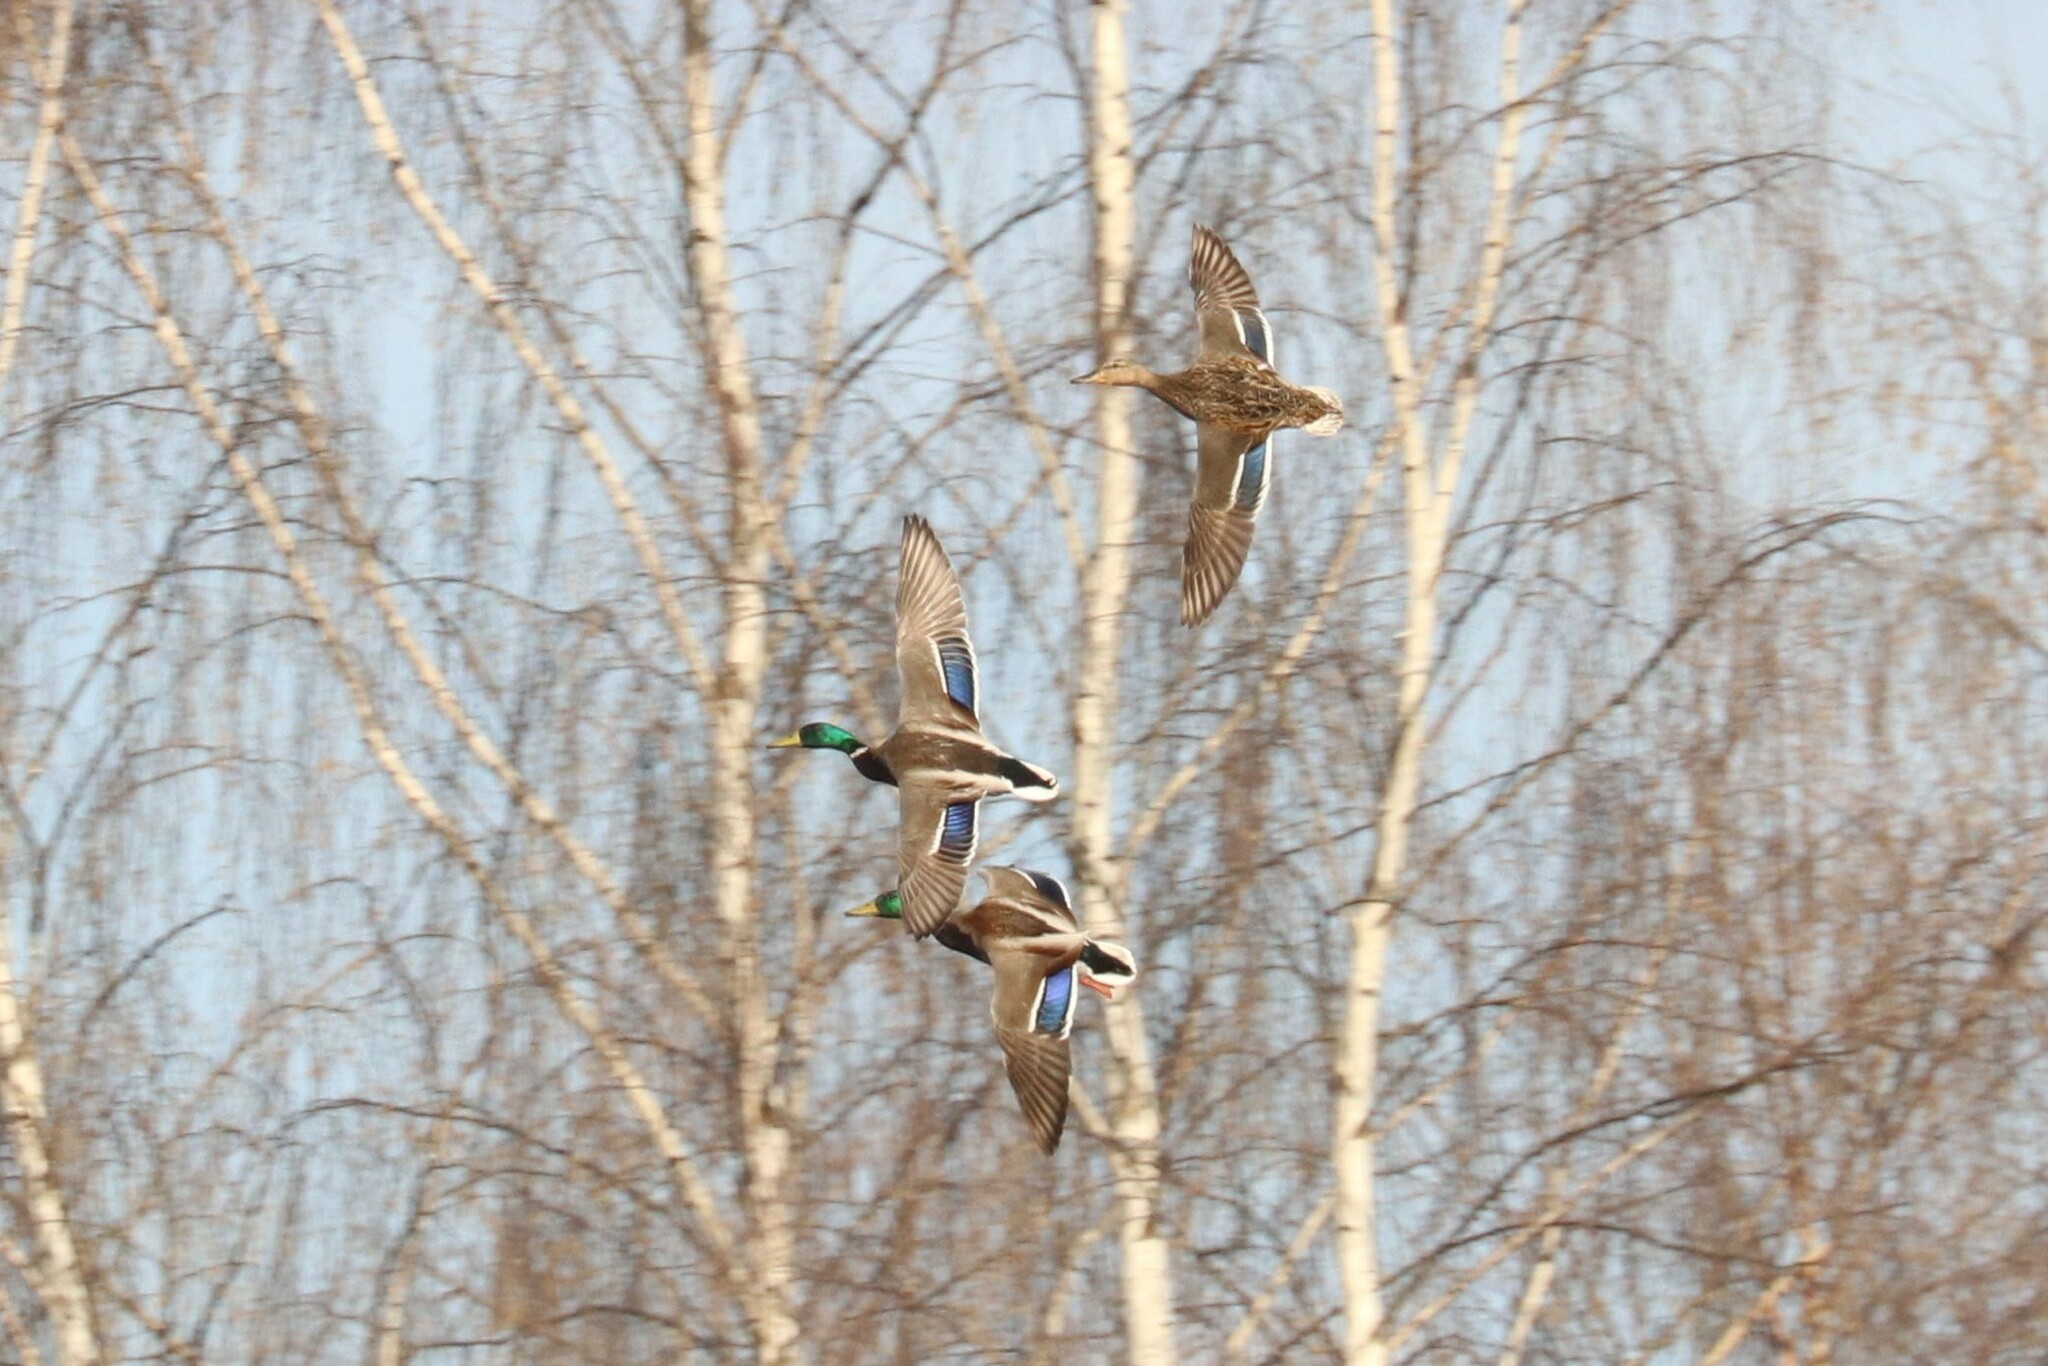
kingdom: Animalia
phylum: Chordata
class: Aves
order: Anseriformes
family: Anatidae
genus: Anas
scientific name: Anas platyrhynchos
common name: Mallard
